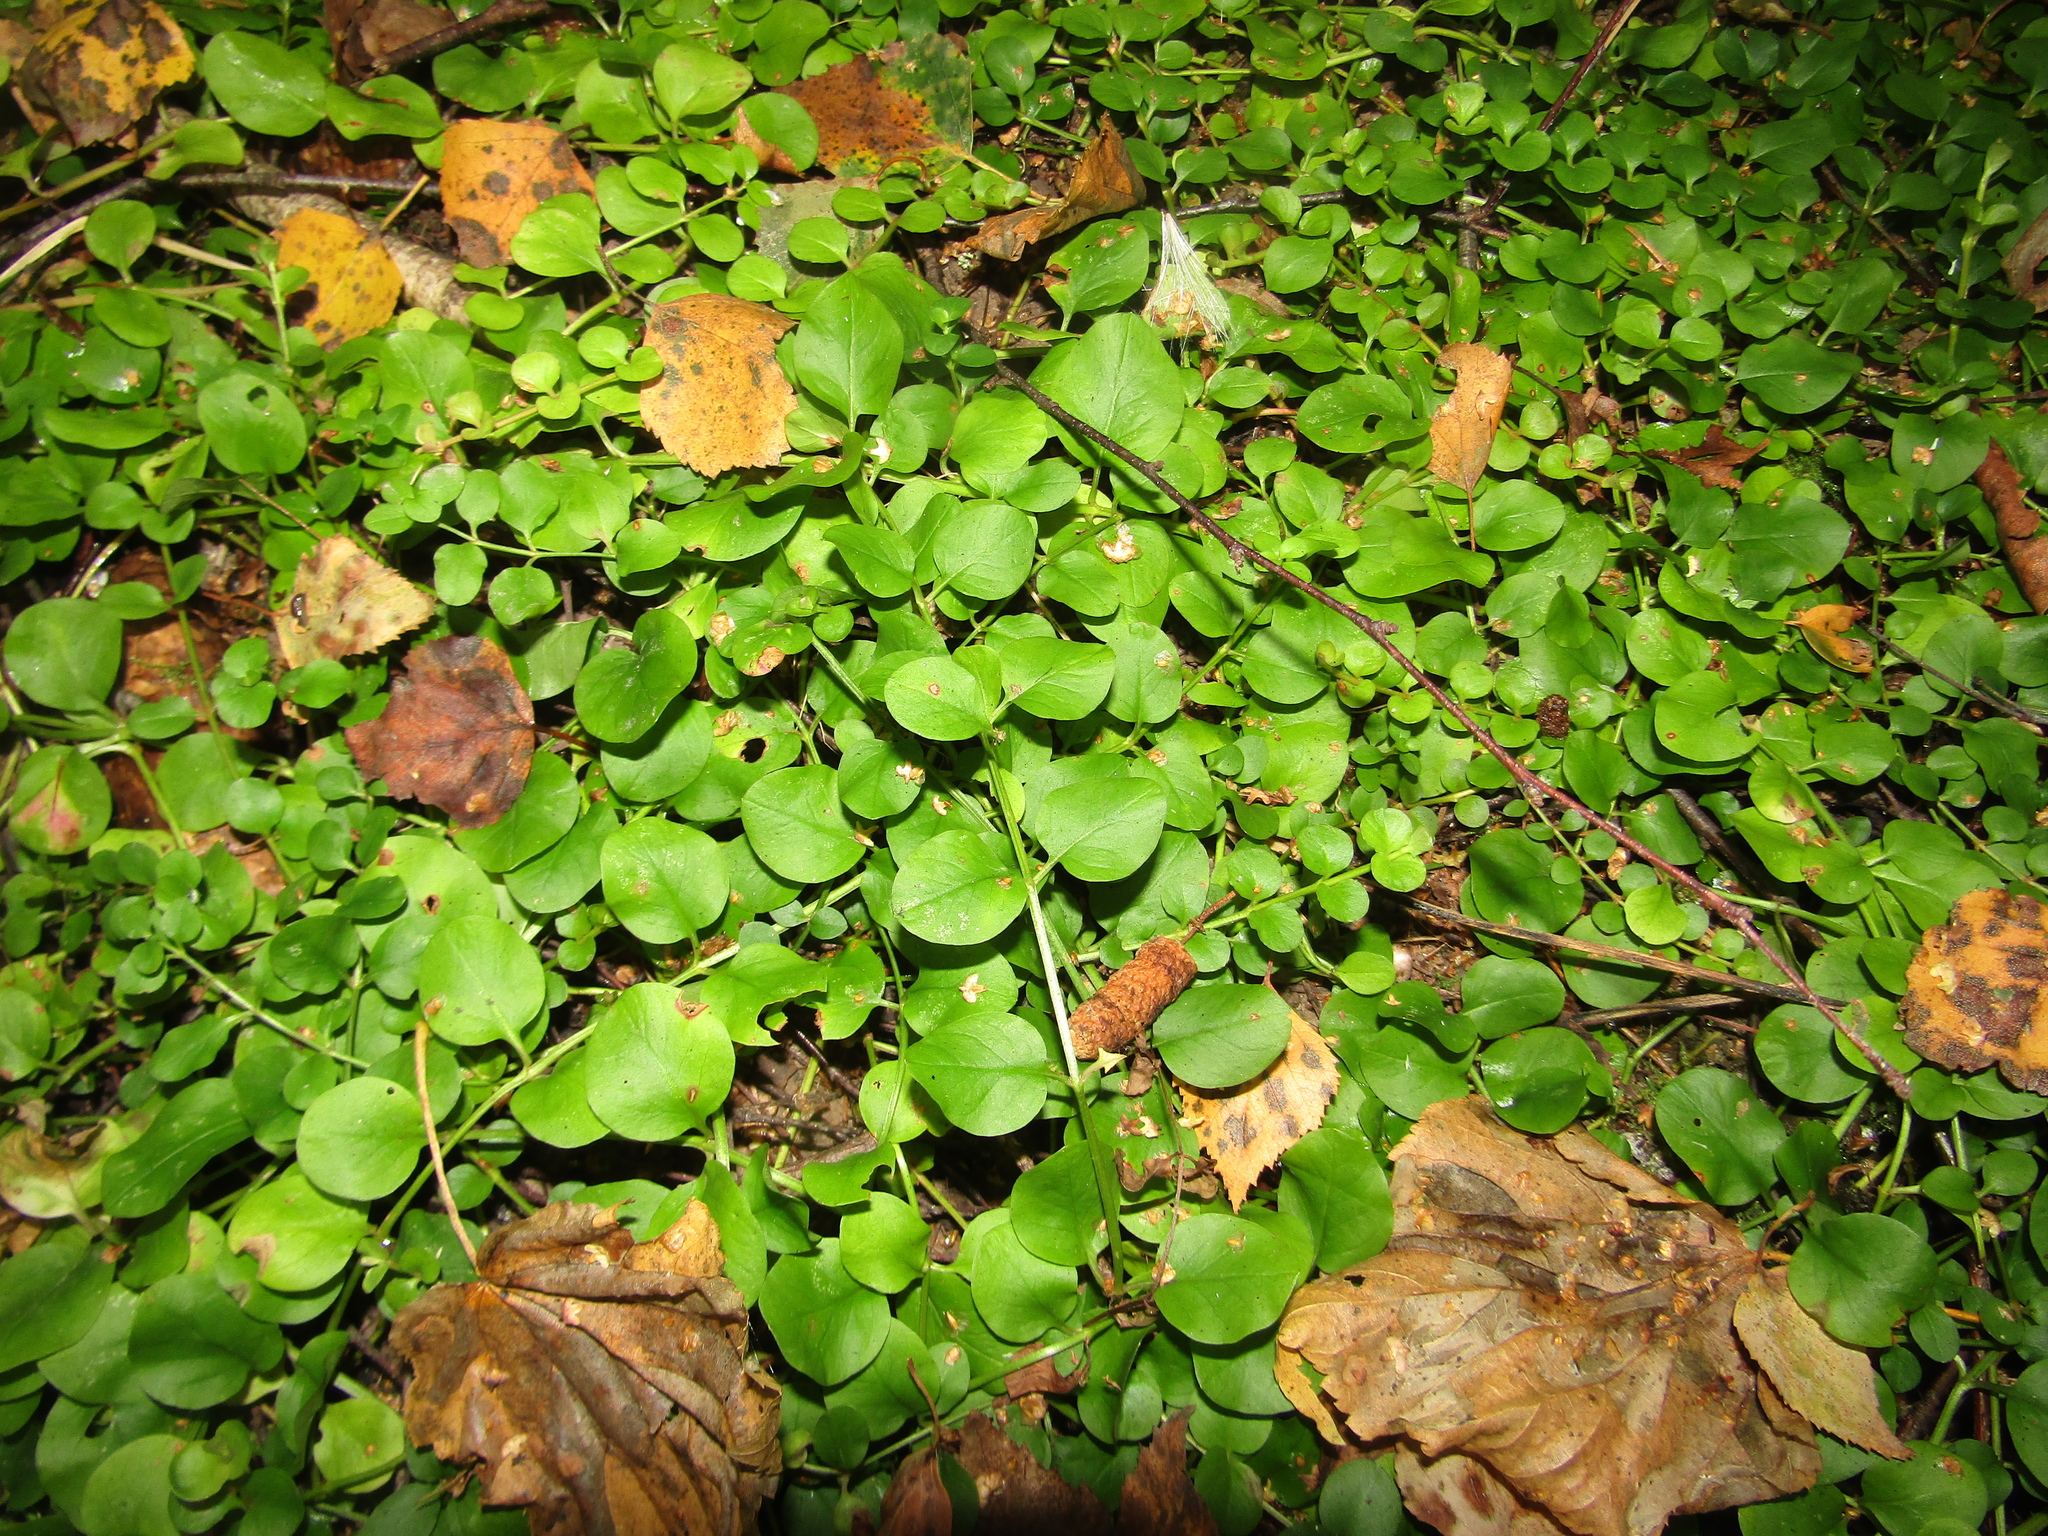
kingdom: Plantae
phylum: Tracheophyta
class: Magnoliopsida
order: Ericales
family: Primulaceae
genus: Lysimachia
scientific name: Lysimachia nummularia
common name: Moneywort
